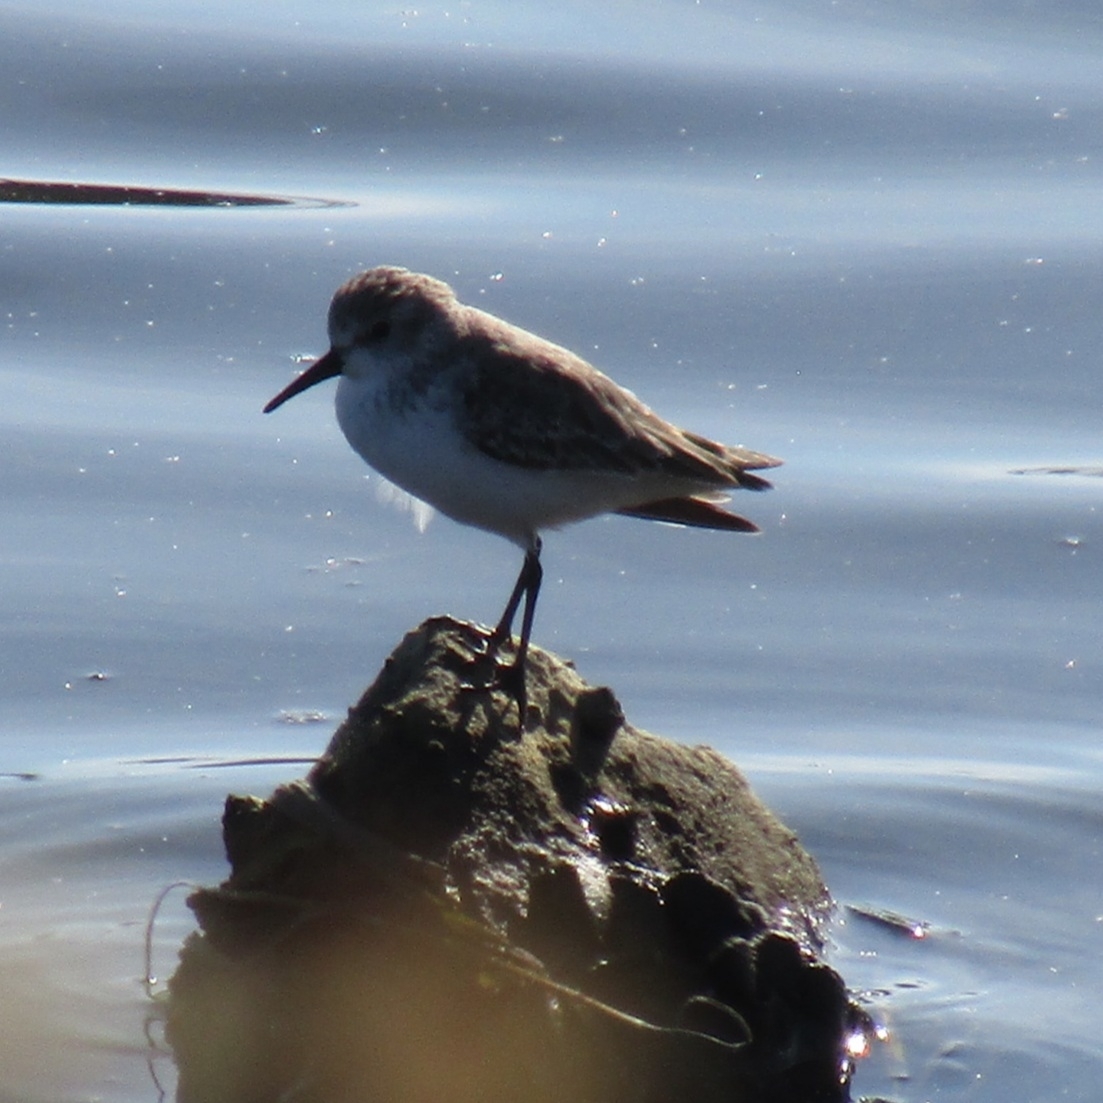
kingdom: Animalia
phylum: Chordata
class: Aves
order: Charadriiformes
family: Scolopacidae
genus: Calidris
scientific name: Calidris mauri
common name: Western sandpiper
